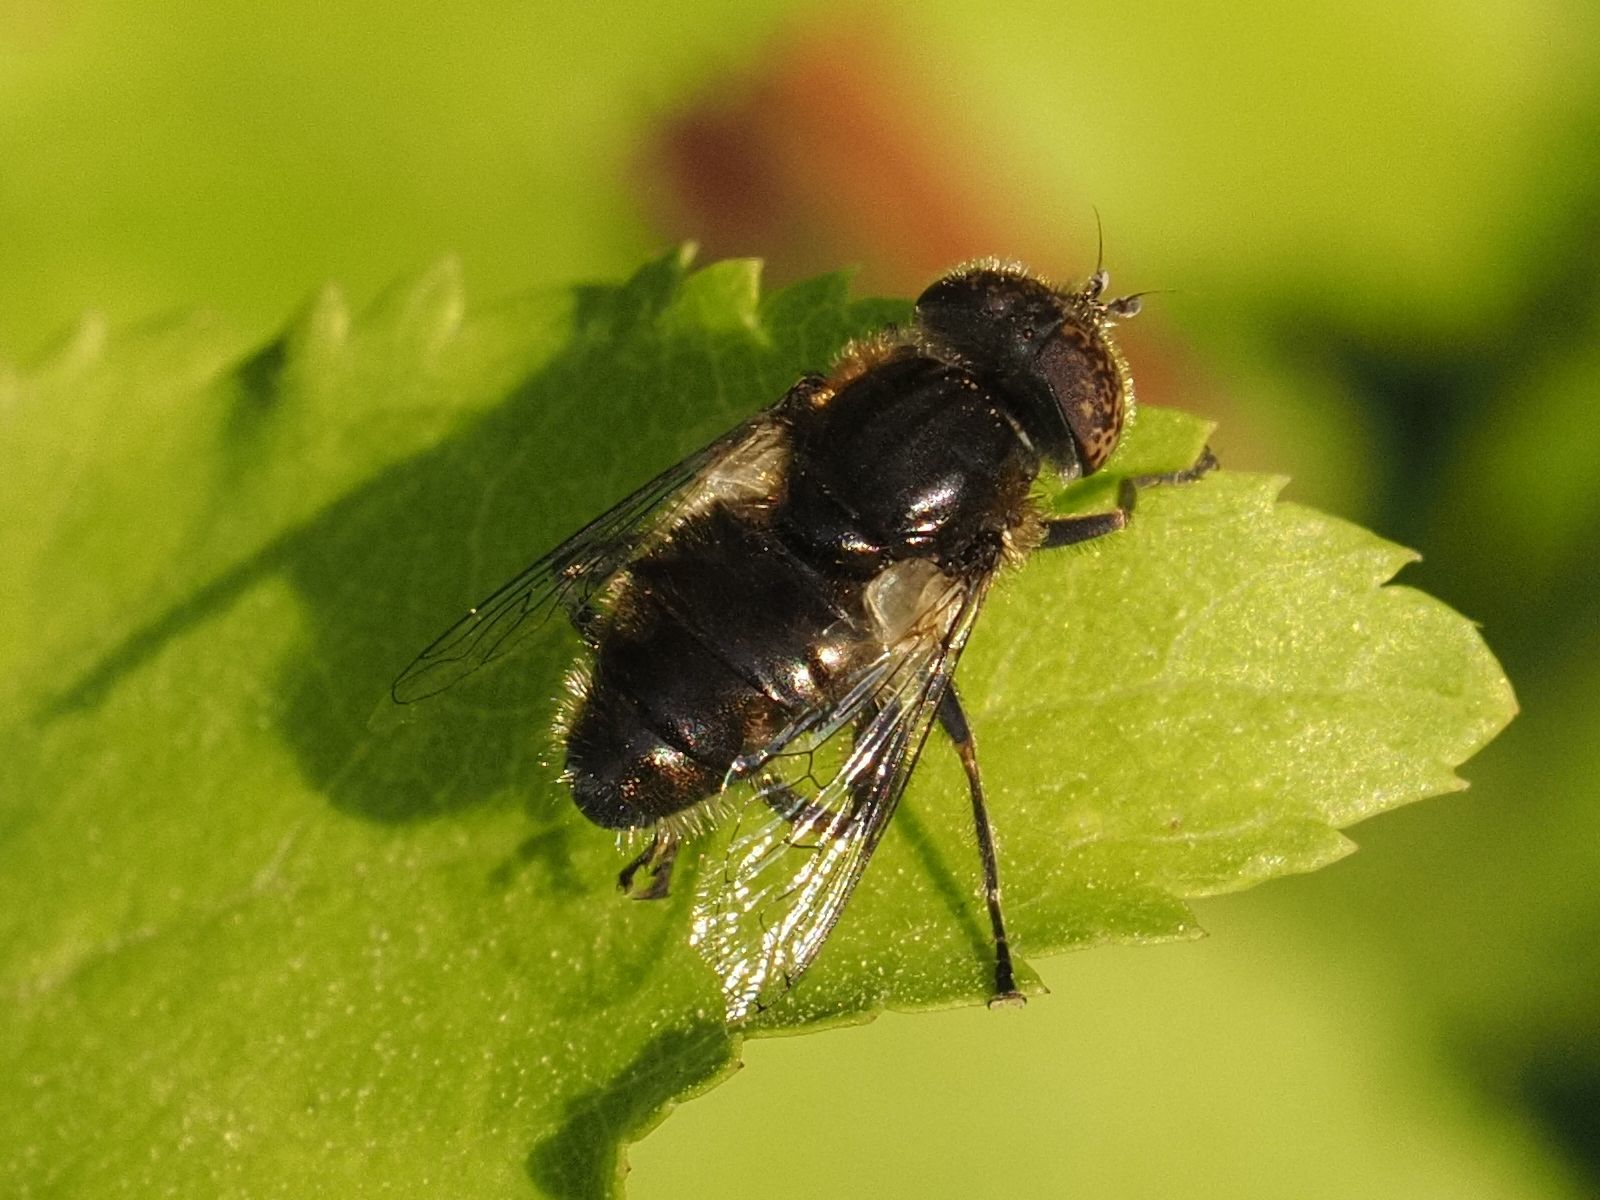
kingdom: Animalia
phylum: Arthropoda
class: Insecta
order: Diptera
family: Syrphidae
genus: Eristalinus
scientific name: Eristalinus sepulchralis
